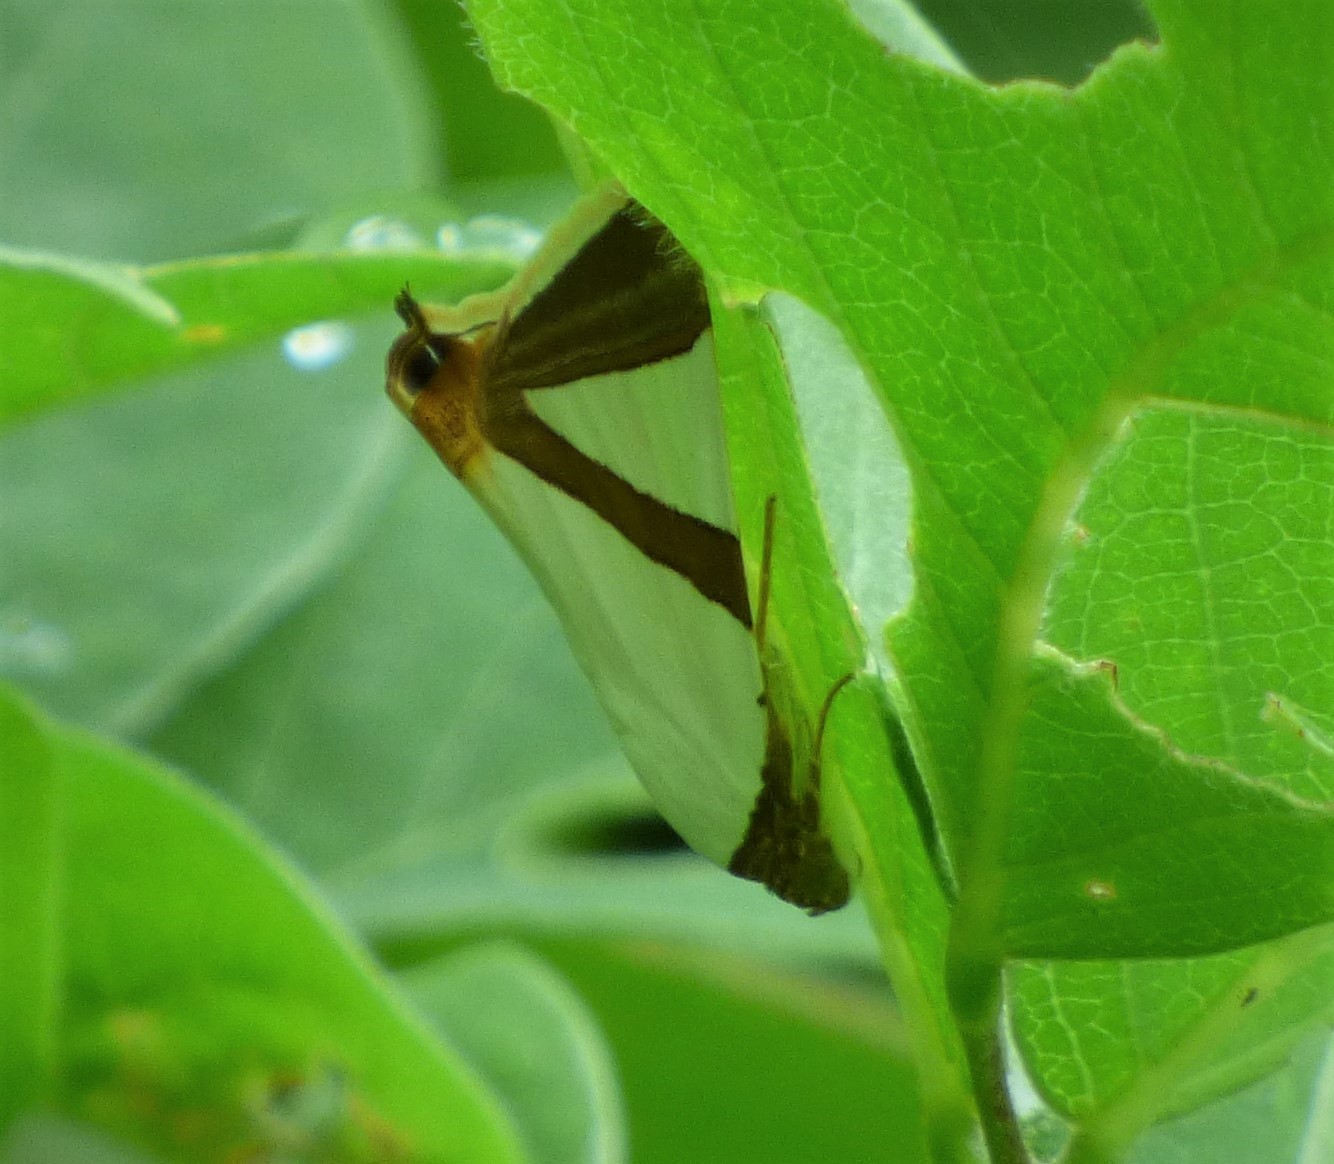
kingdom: Animalia
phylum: Arthropoda
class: Insecta
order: Lepidoptera
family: Erebidae
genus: Eulepidotis
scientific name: Eulepidotis dominicata
